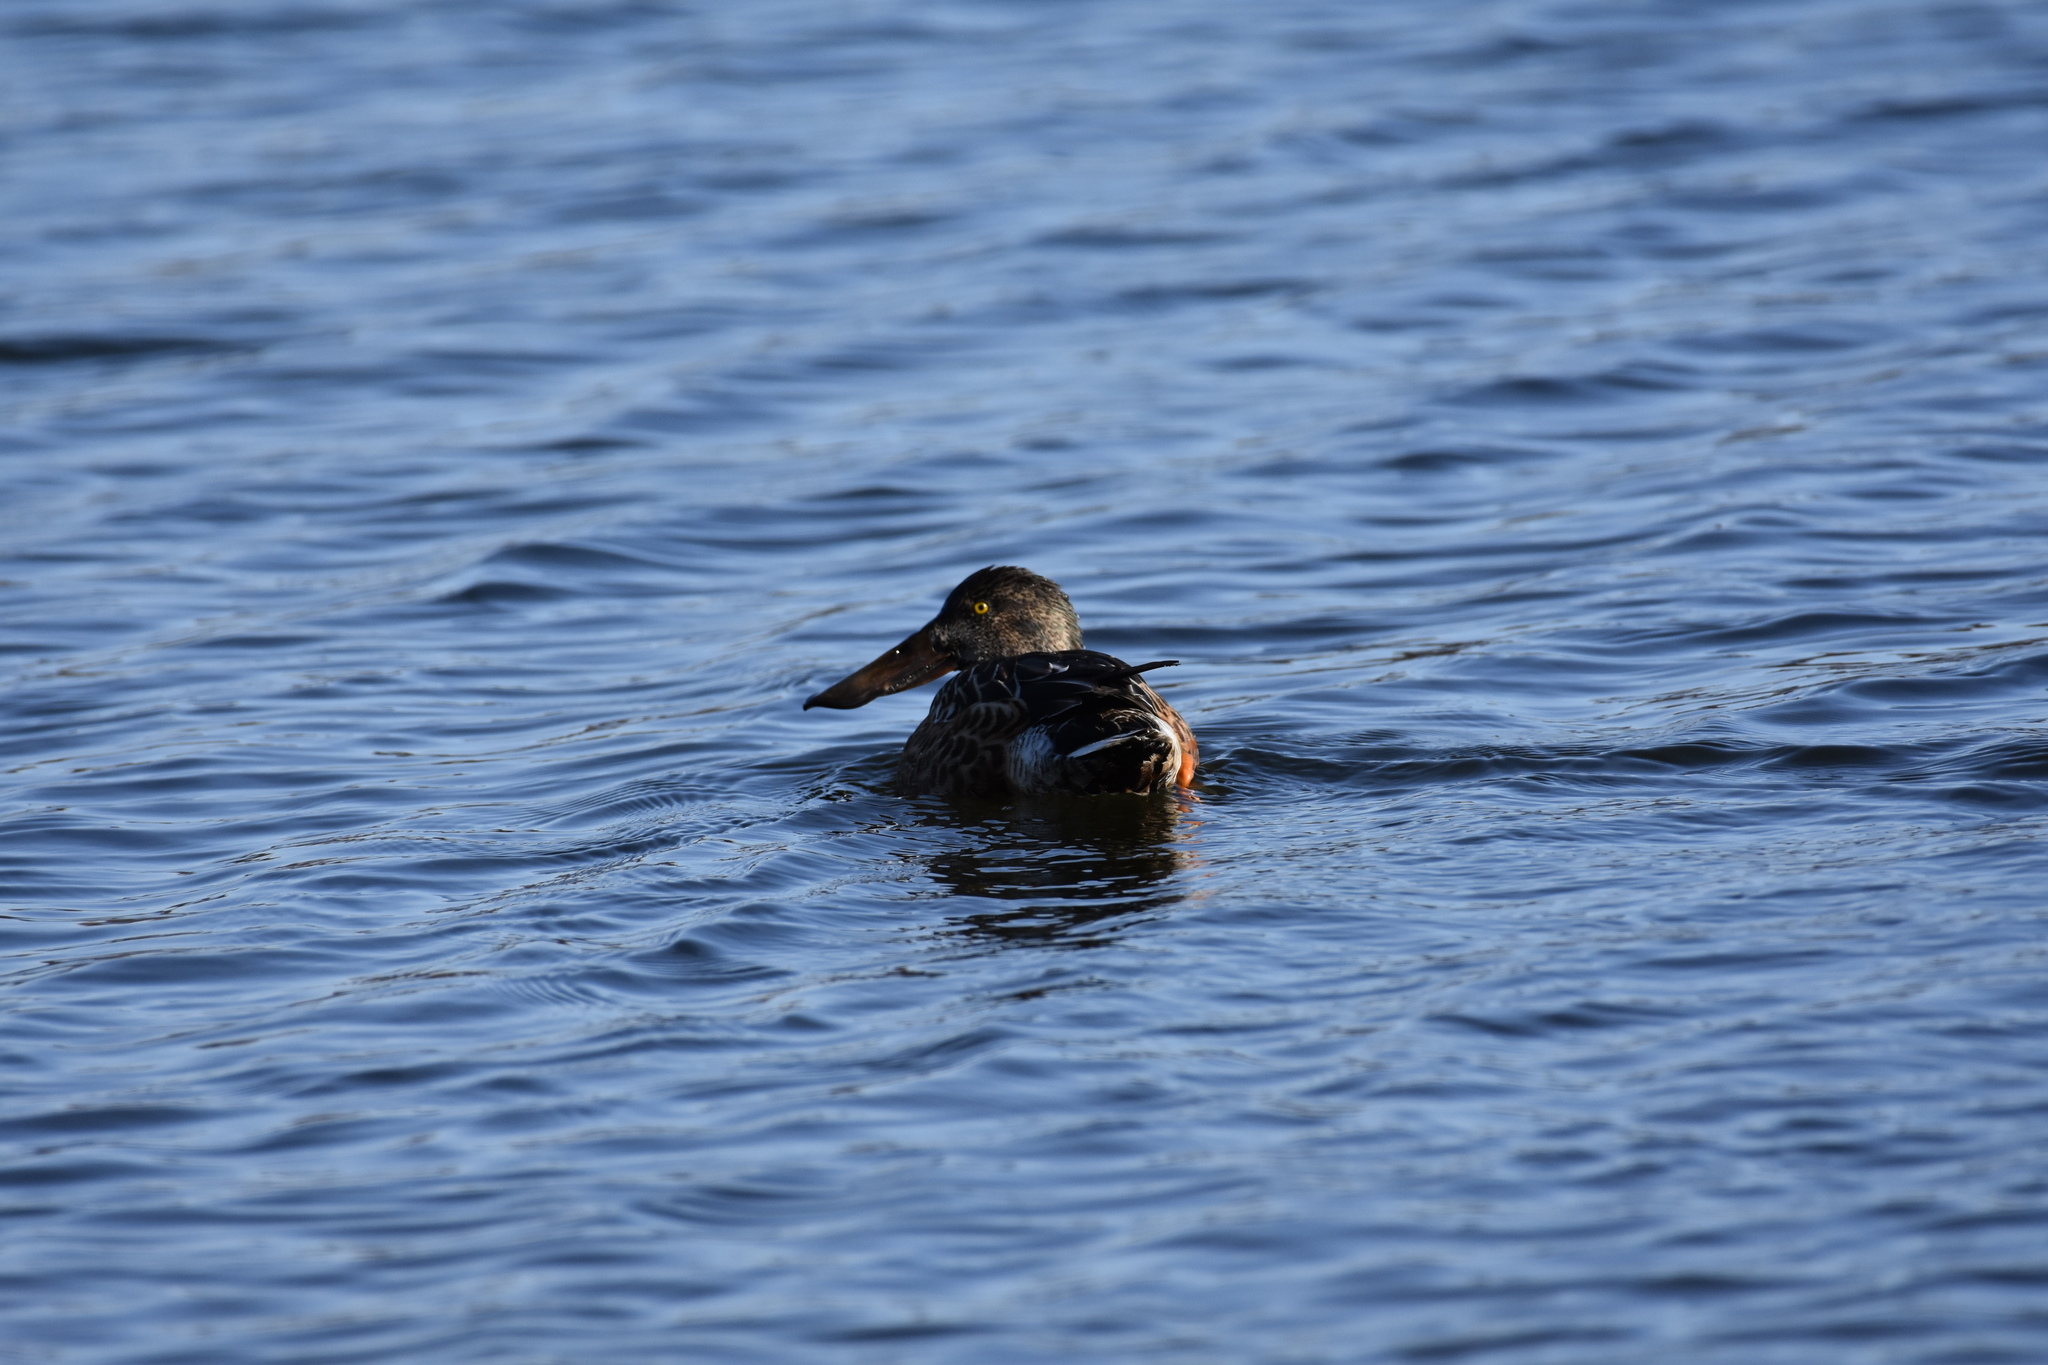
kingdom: Animalia
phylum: Chordata
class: Aves
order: Anseriformes
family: Anatidae
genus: Spatula
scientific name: Spatula clypeata
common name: Northern shoveler
